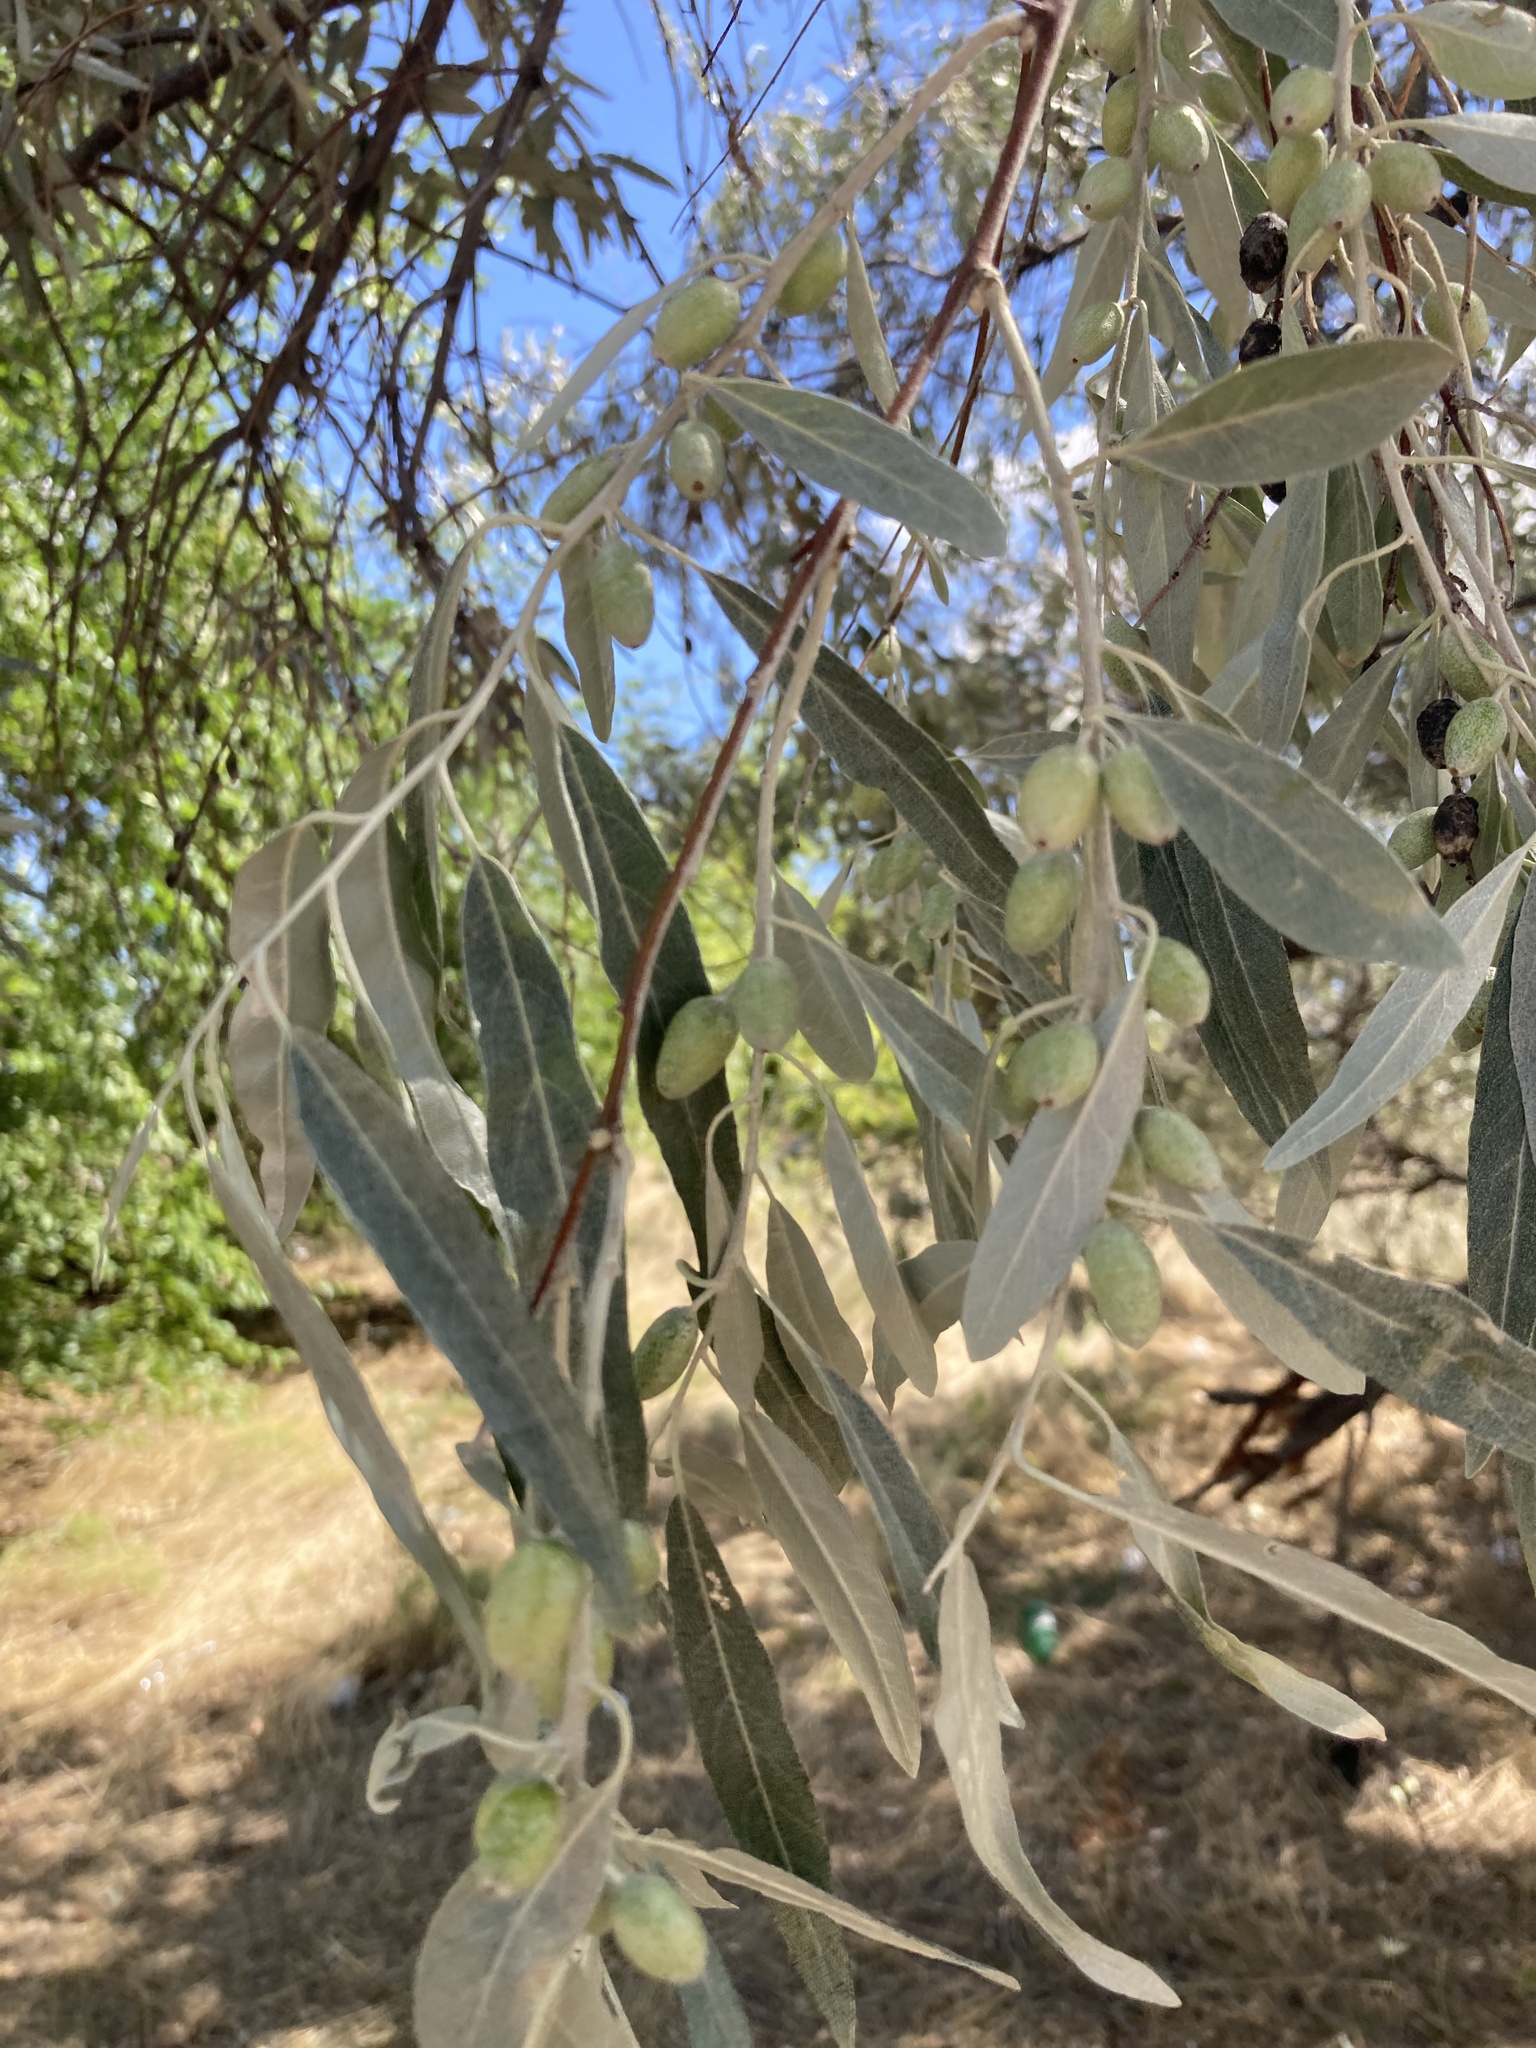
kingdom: Plantae
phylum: Tracheophyta
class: Magnoliopsida
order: Rosales
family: Elaeagnaceae
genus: Elaeagnus
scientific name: Elaeagnus angustifolia
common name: Russian olive
